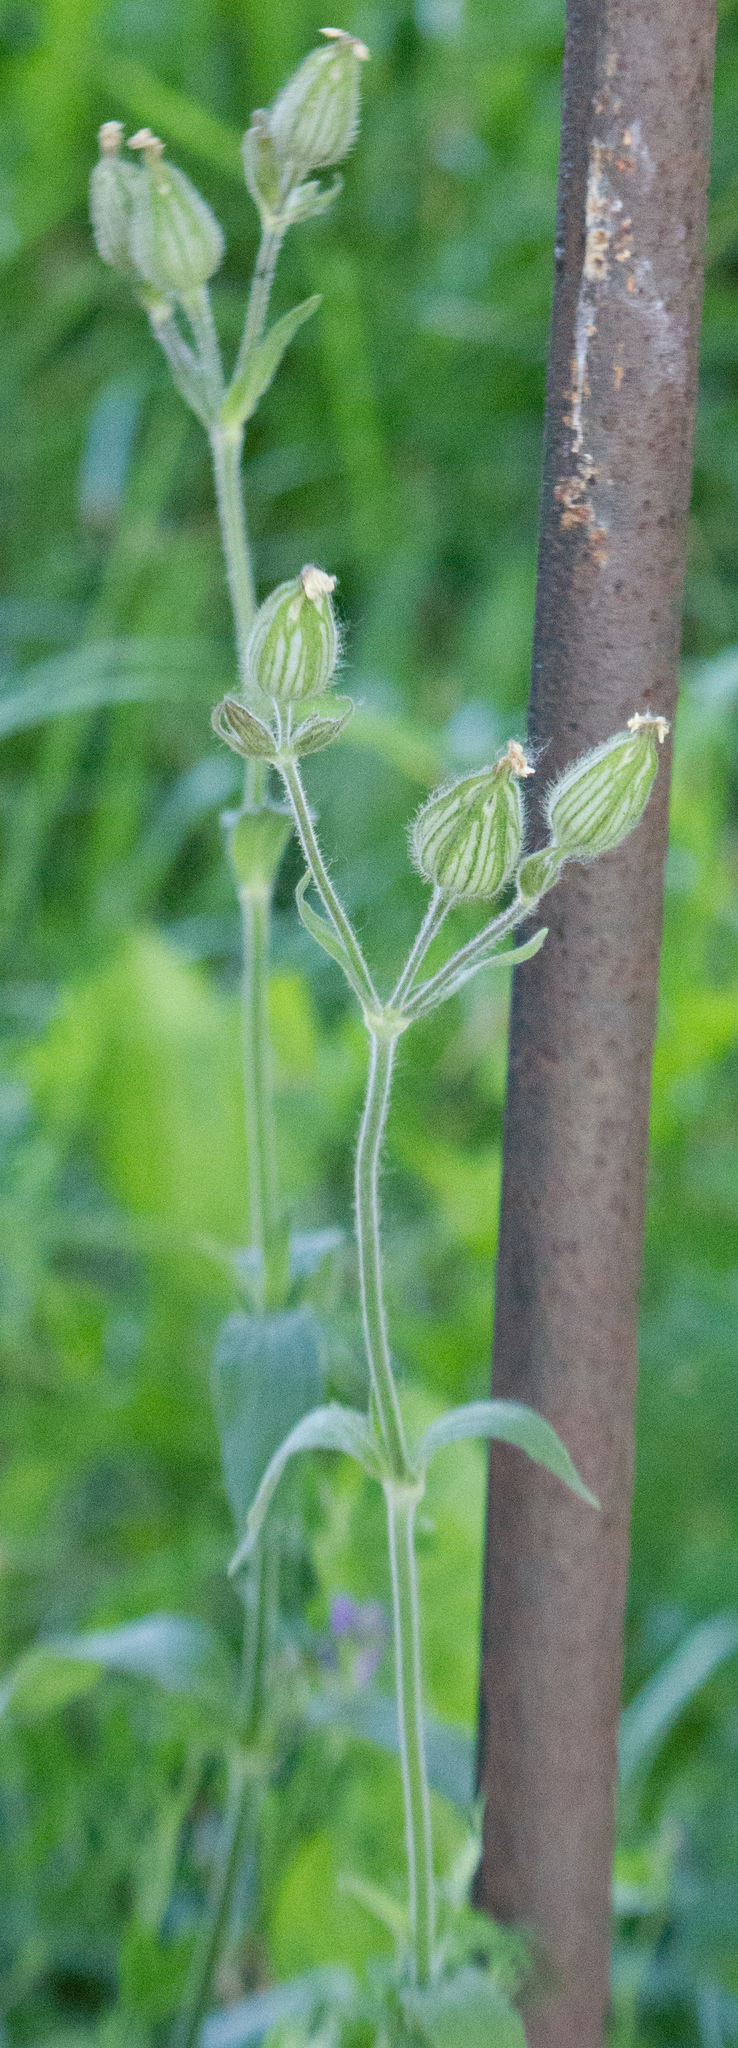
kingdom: Plantae
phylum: Tracheophyta
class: Magnoliopsida
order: Caryophyllales
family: Caryophyllaceae
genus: Silene
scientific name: Silene latifolia
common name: White campion
